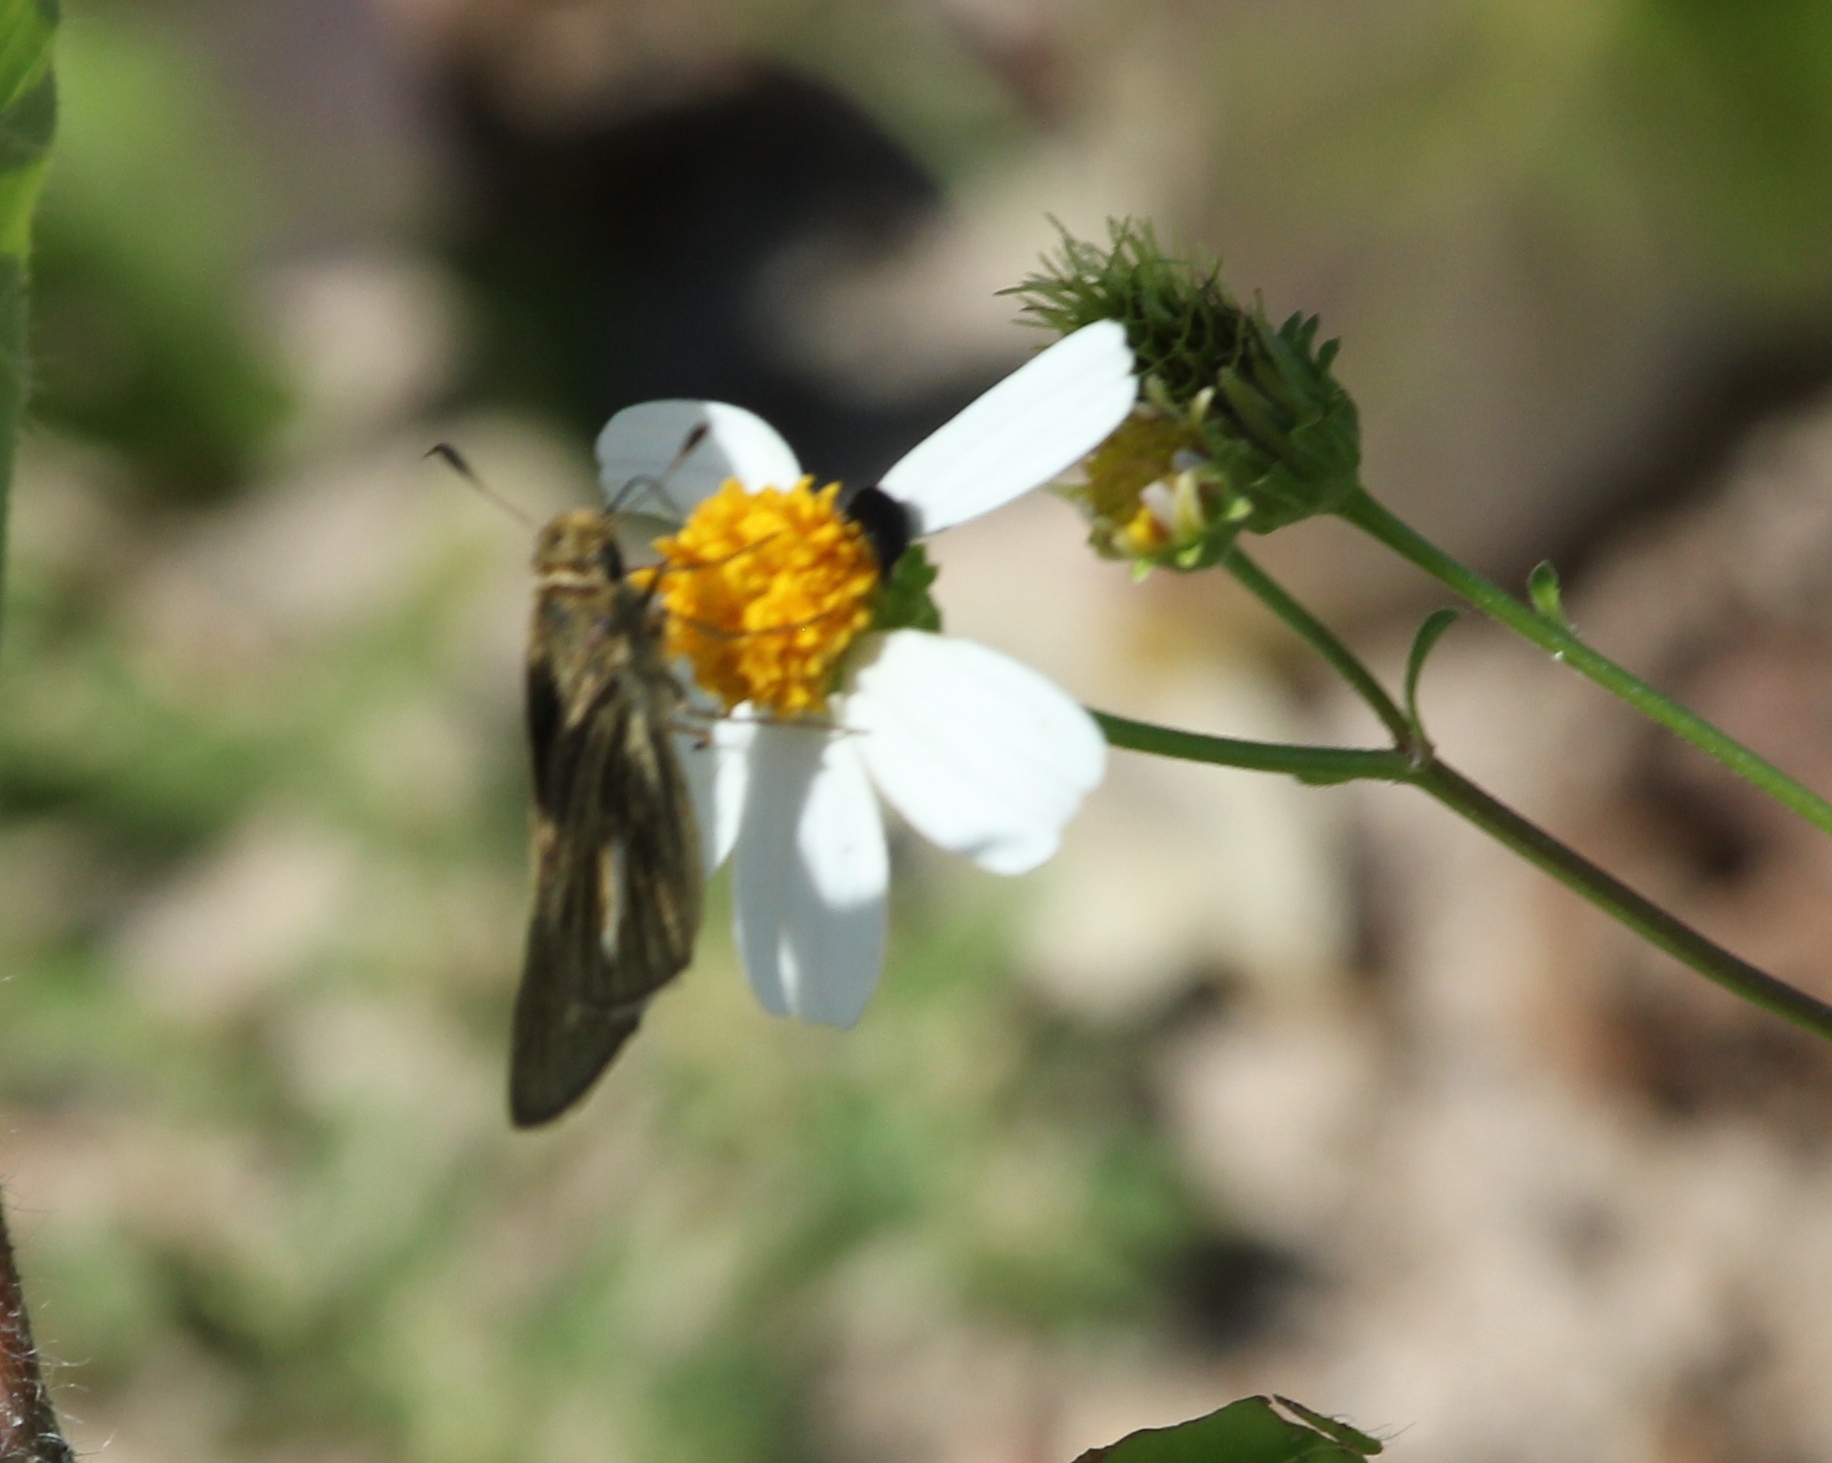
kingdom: Animalia
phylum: Arthropoda
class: Insecta
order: Lepidoptera
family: Hesperiidae
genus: Panoquina
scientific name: Panoquina panoquin
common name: Salt marsh skipper
